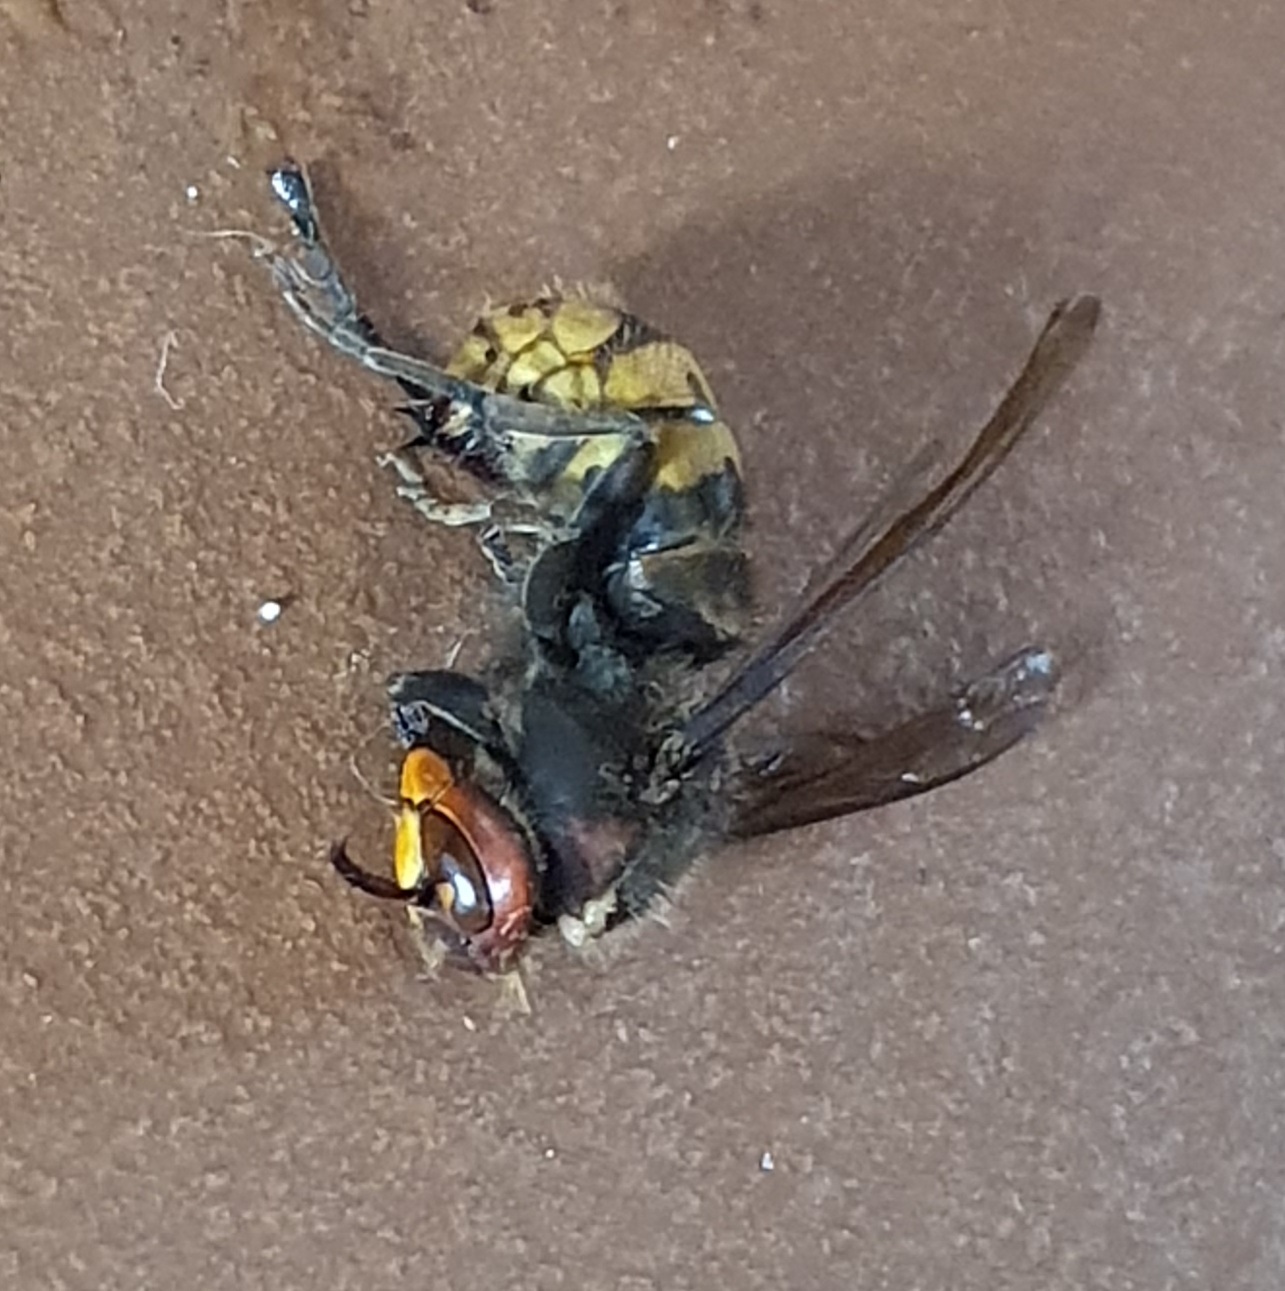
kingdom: Animalia
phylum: Arthropoda
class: Insecta
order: Hymenoptera
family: Vespidae
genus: Vespa
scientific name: Vespa crabro
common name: Hornet
